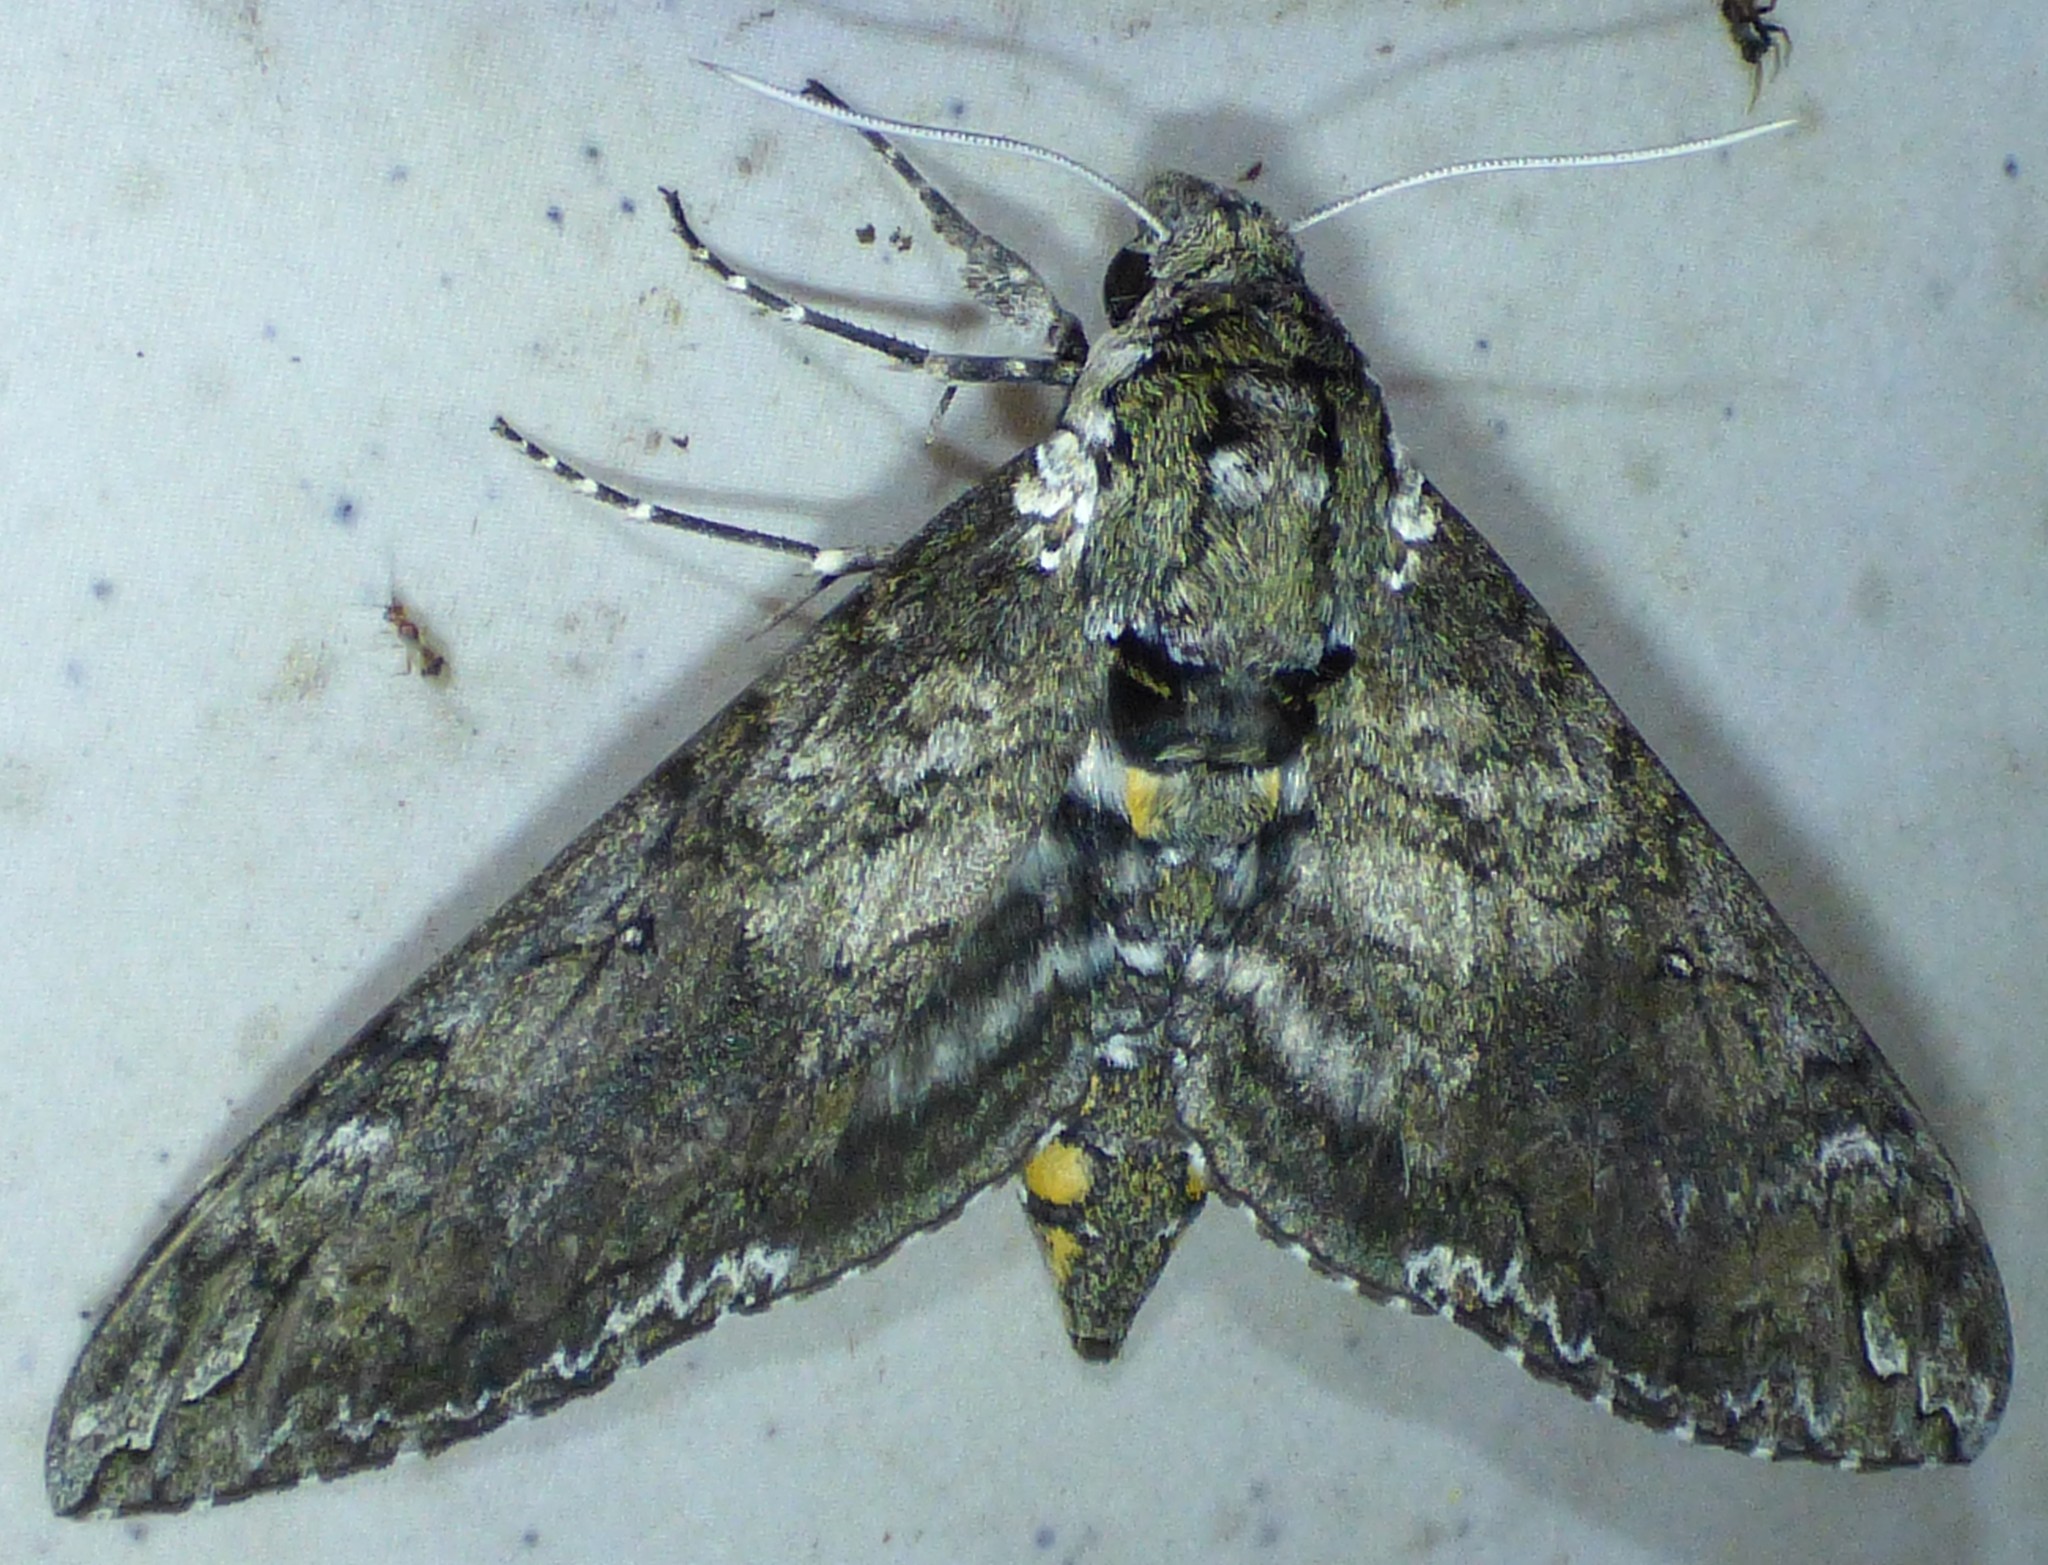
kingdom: Animalia
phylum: Arthropoda
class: Insecta
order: Lepidoptera
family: Sphingidae
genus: Manduca
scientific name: Manduca sexta
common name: Carolina sphinx
